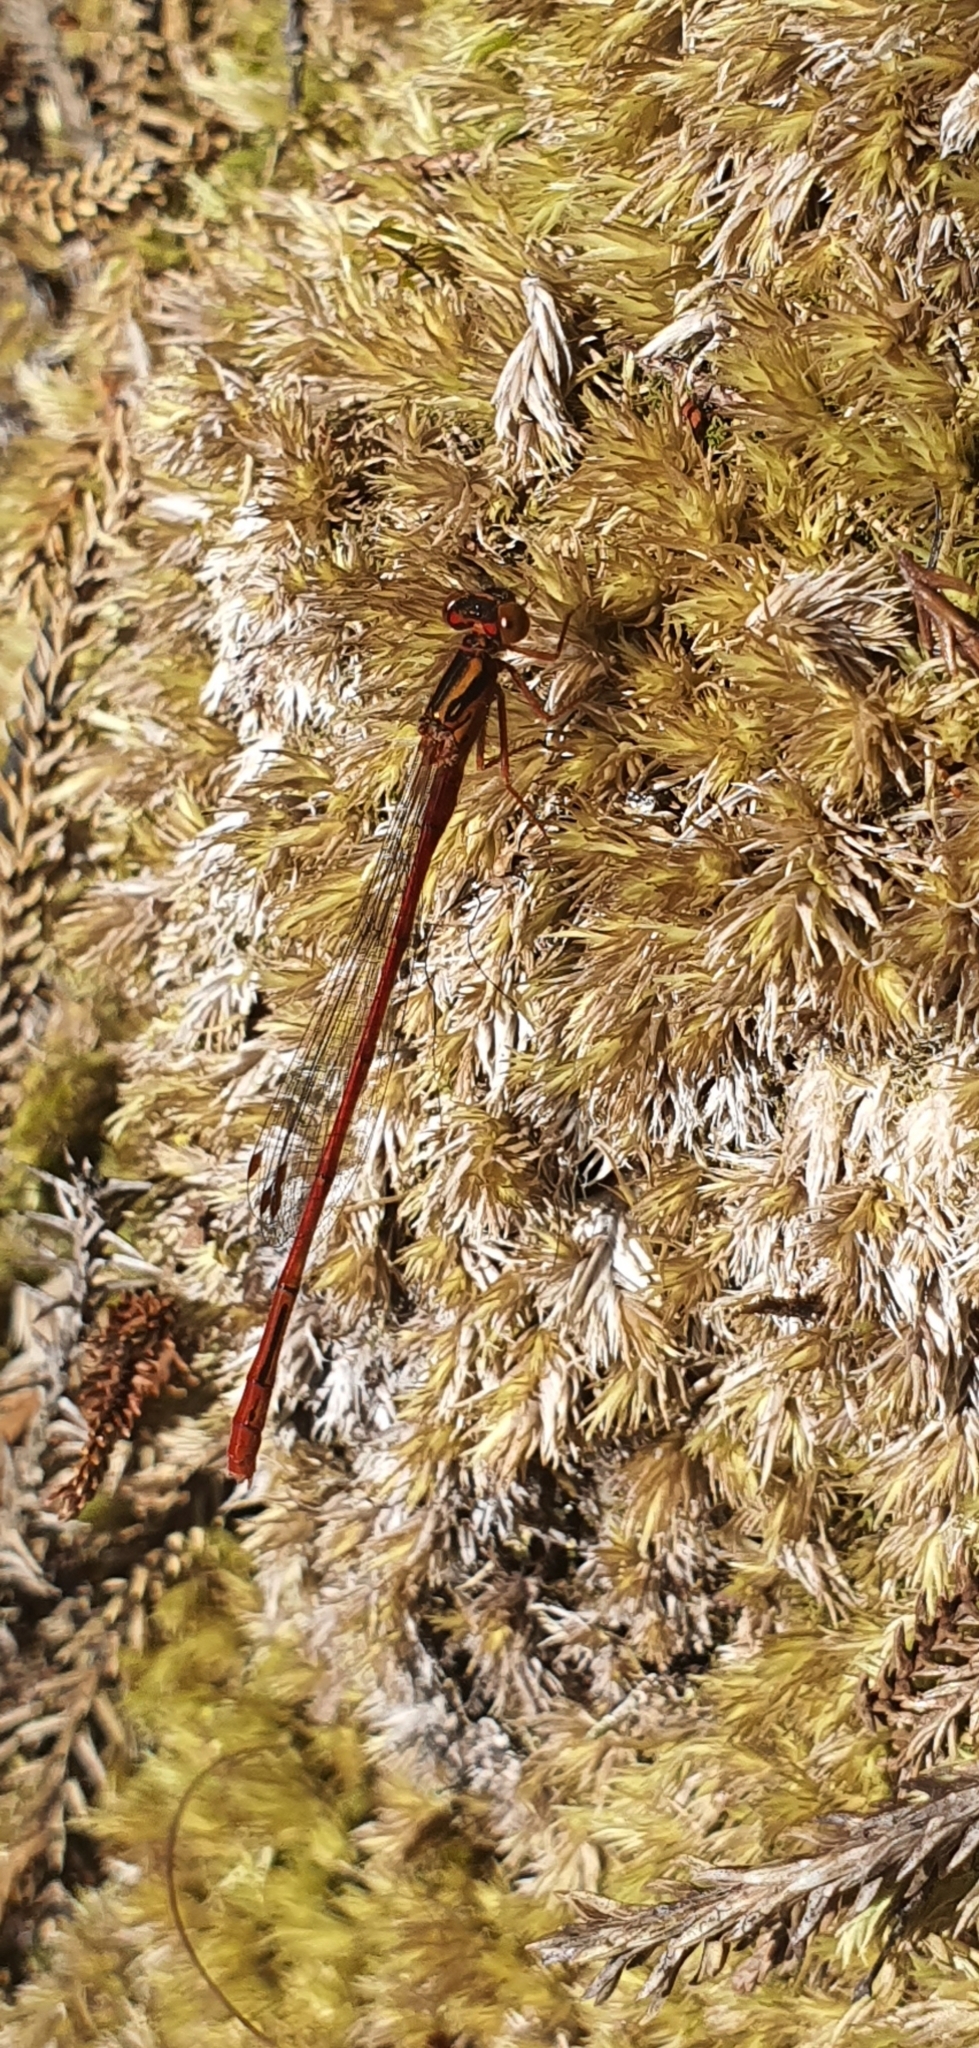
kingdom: Animalia
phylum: Arthropoda
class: Insecta
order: Odonata
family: Coenagrionidae
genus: Xanthocnemis
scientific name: Xanthocnemis zealandica
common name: Common redcoat damselfly
